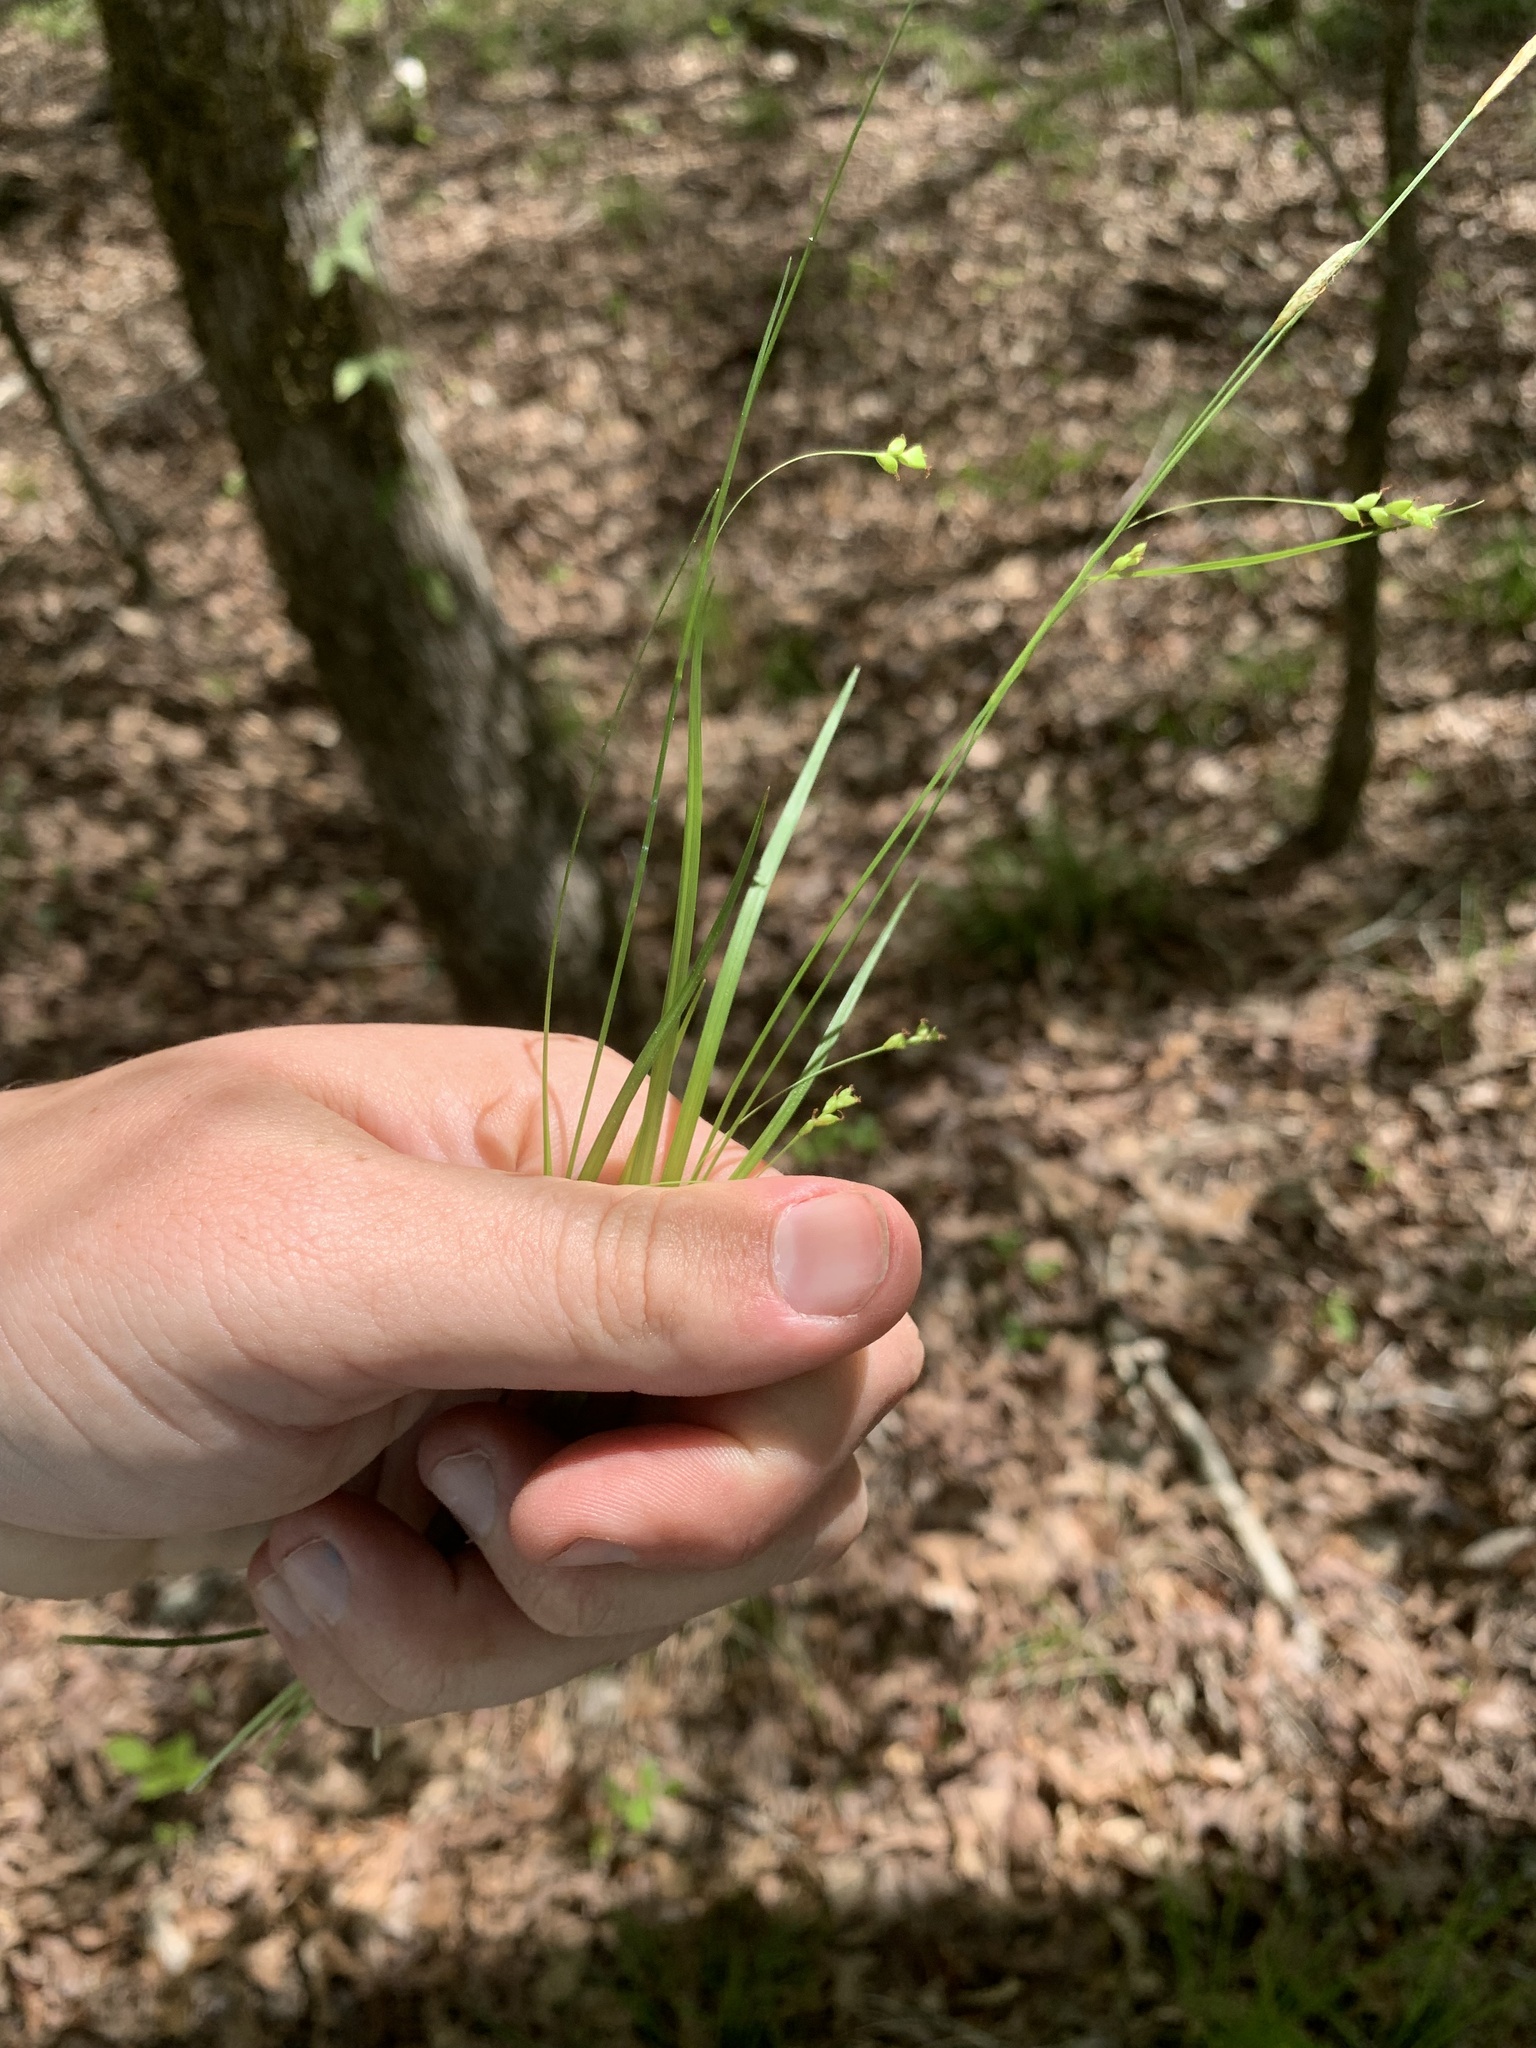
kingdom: Plantae
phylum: Tracheophyta
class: Liliopsida
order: Poales
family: Cyperaceae
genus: Carex
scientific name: Carex digitalis
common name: Slender wood sedge
